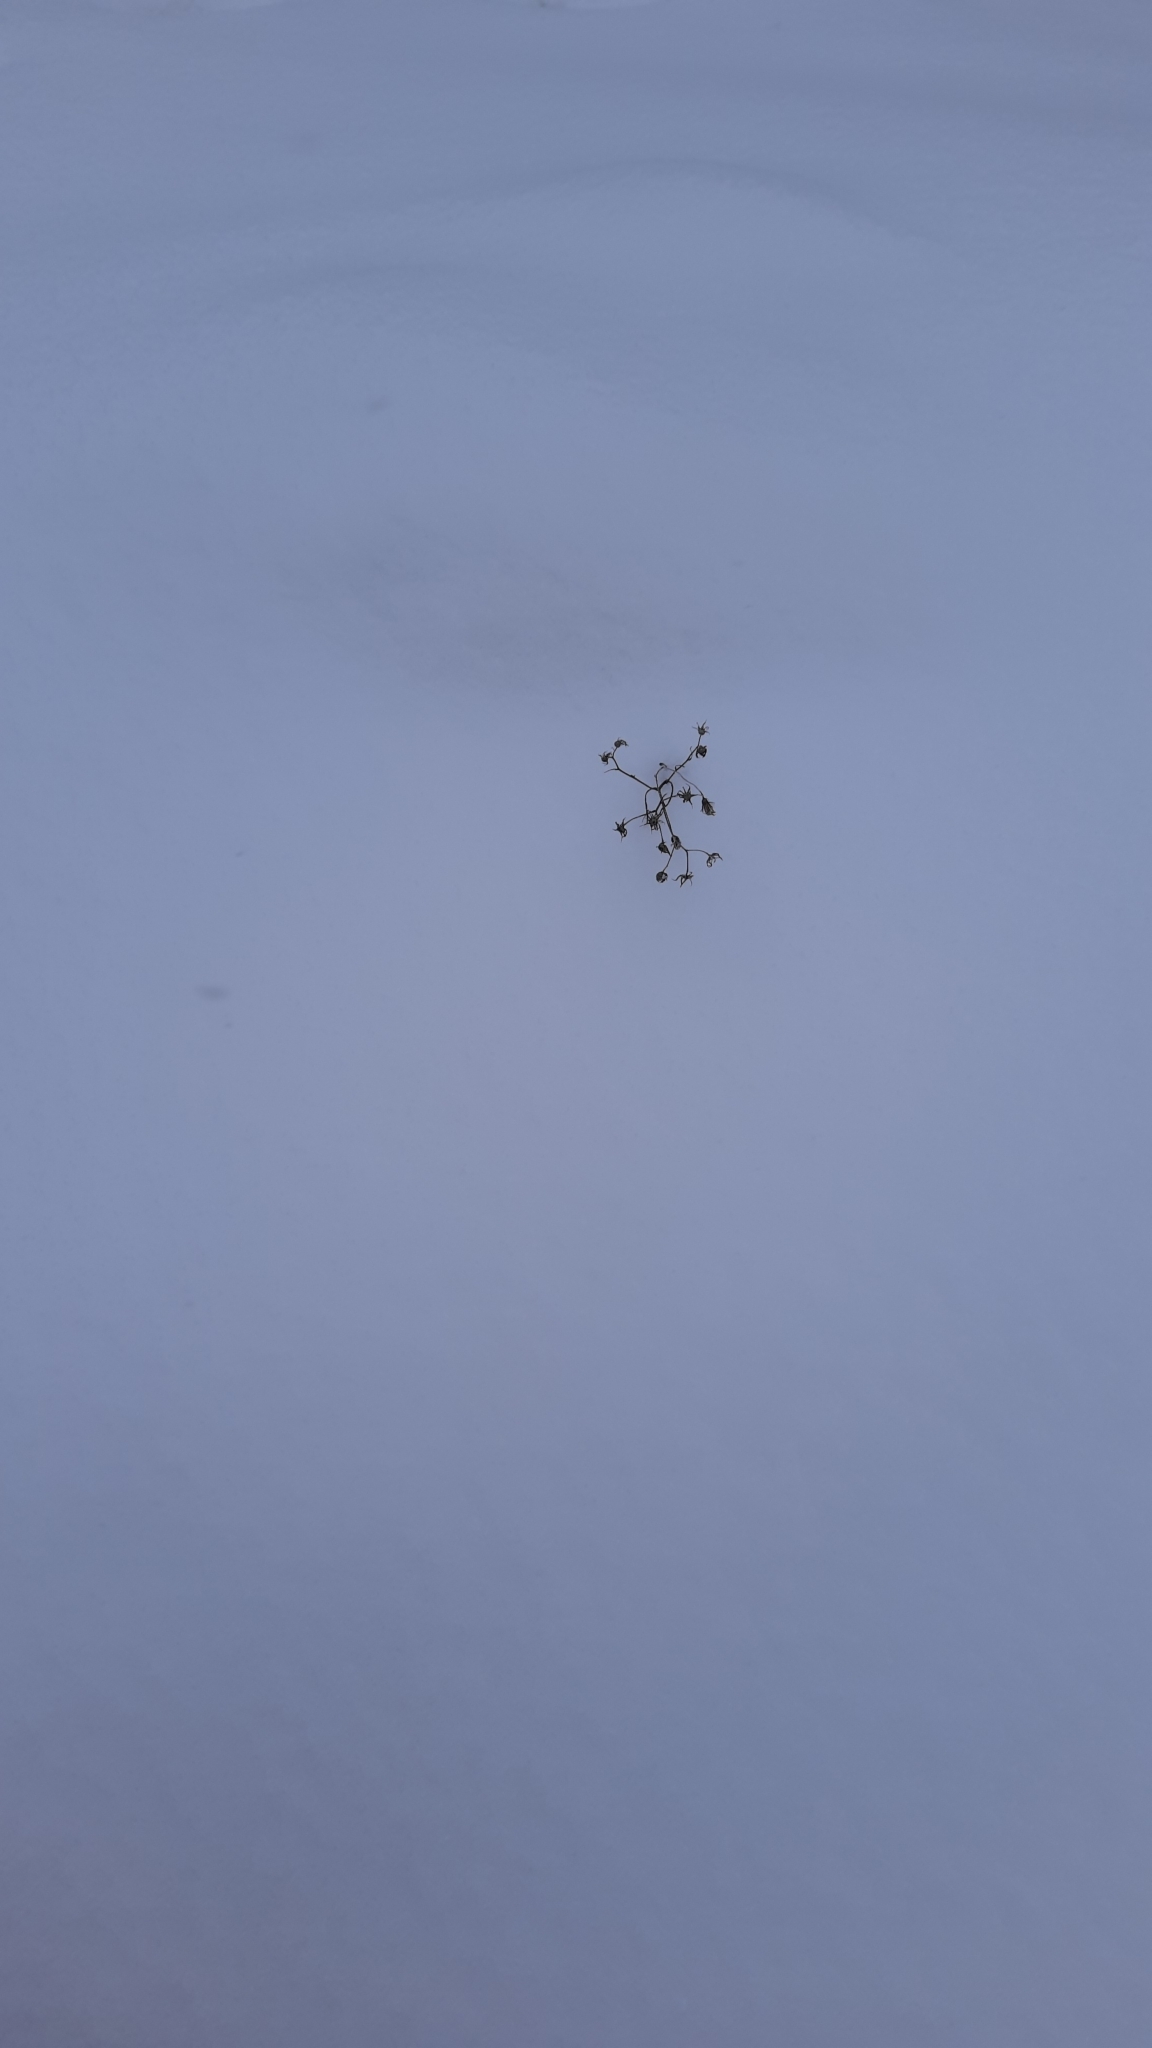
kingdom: Plantae
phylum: Tracheophyta
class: Magnoliopsida
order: Asterales
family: Asteraceae
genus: Hieracium
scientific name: Hieracium umbellatum
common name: Northern hawkweed
